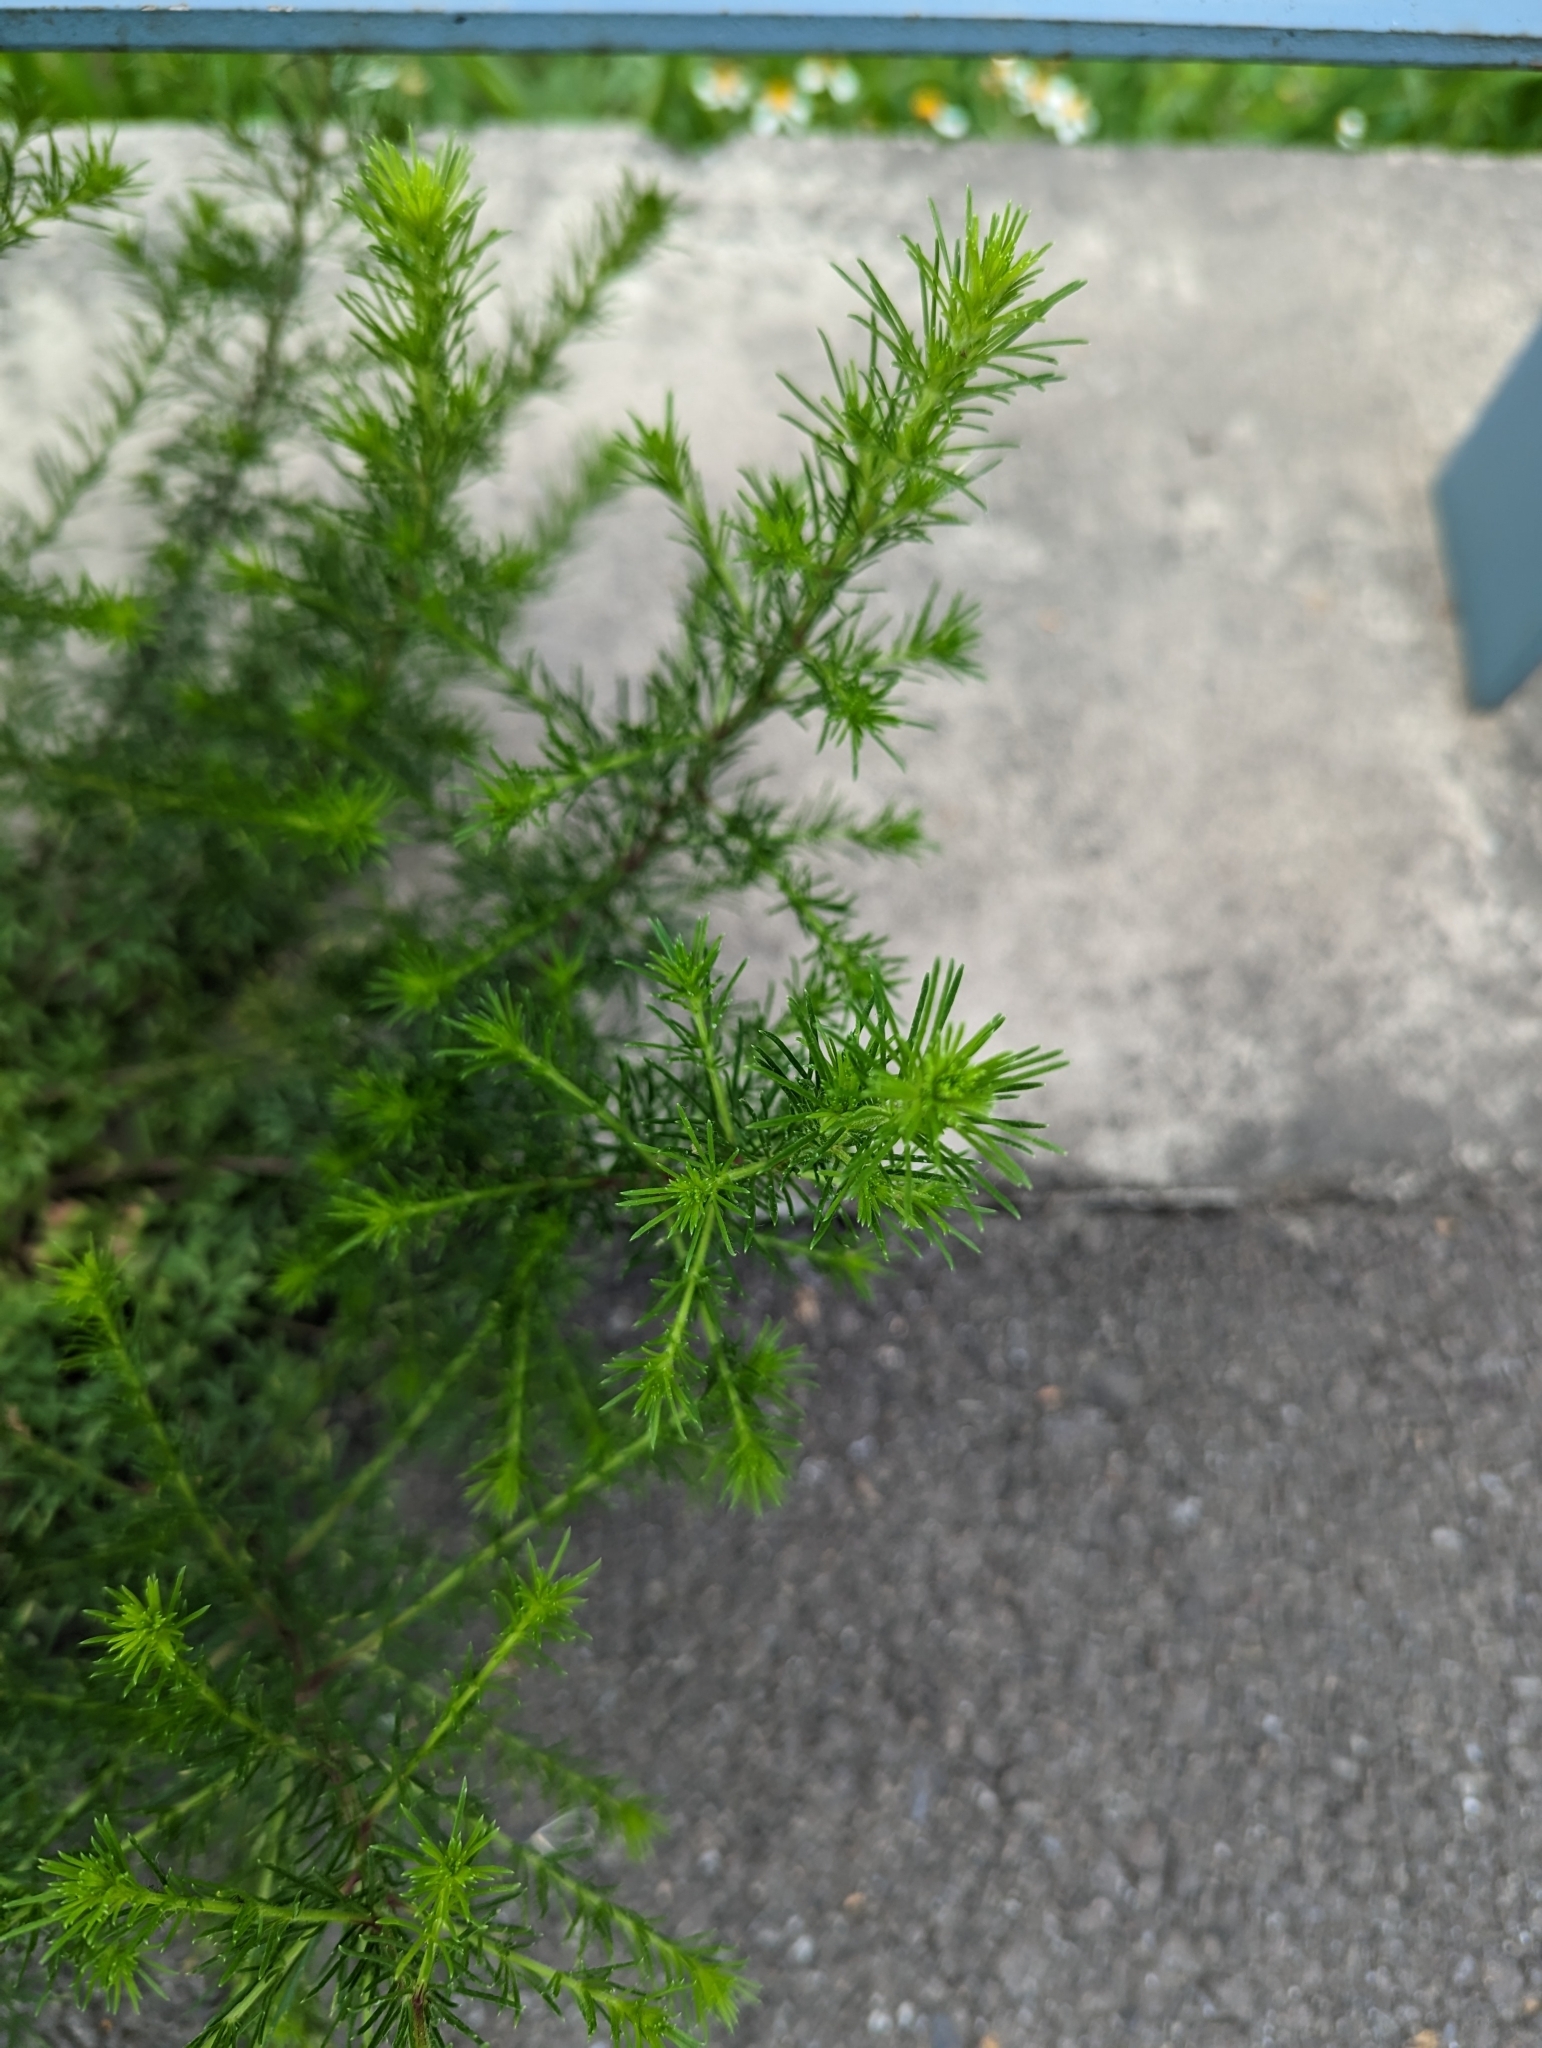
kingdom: Plantae
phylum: Tracheophyta
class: Magnoliopsida
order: Asterales
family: Asteraceae
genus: Artemisia
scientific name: Artemisia capillaris
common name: Yin-chen wormwood
